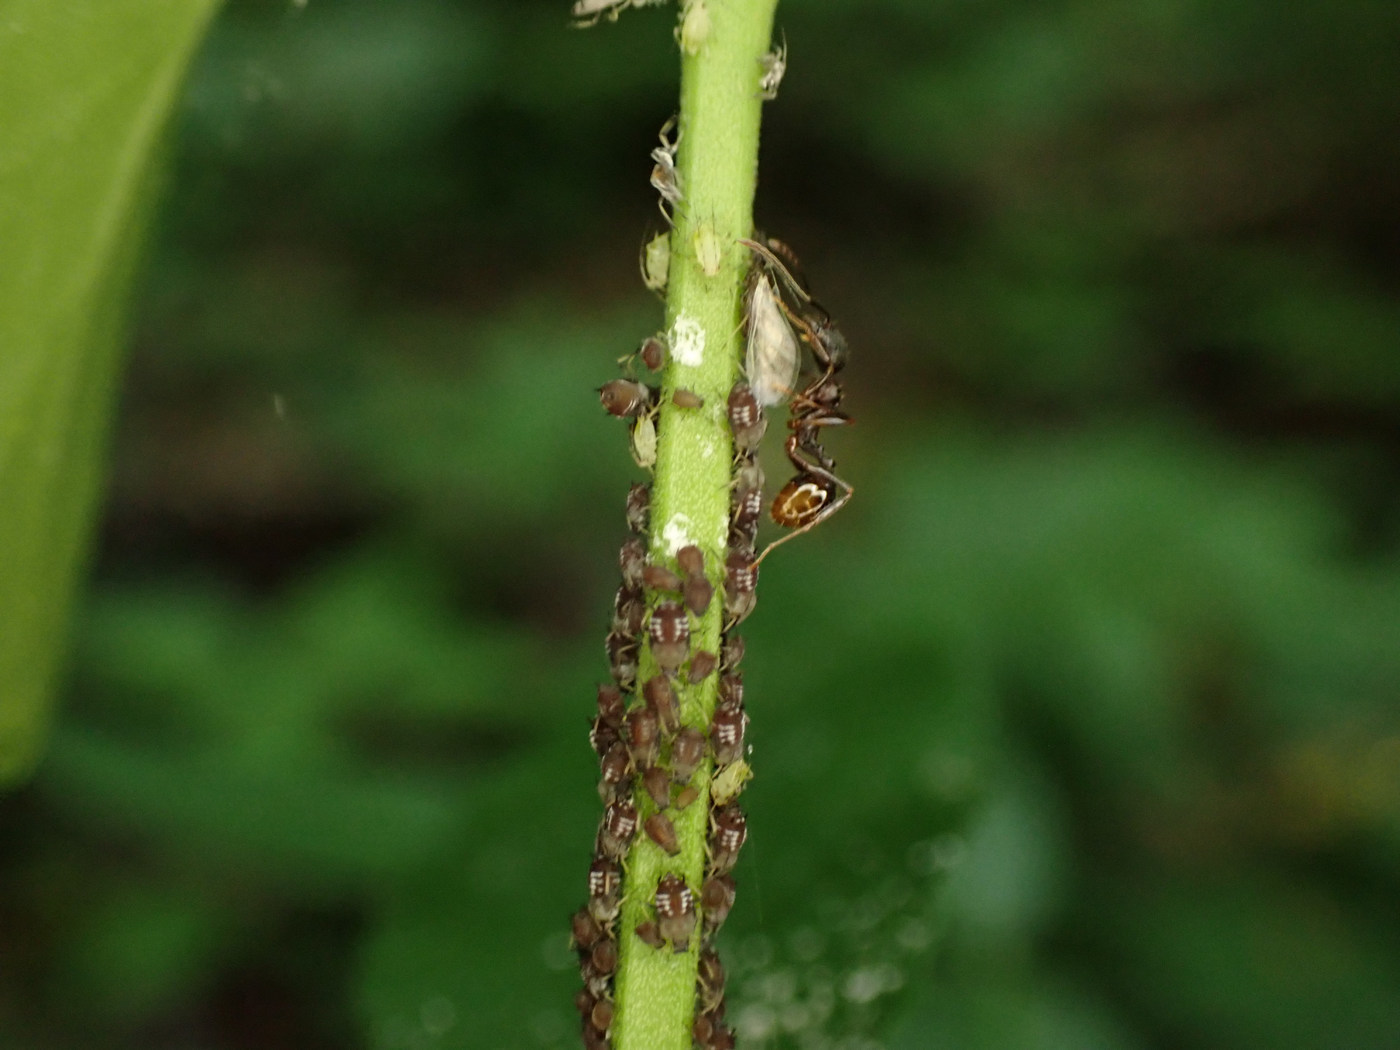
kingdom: Animalia
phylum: Arthropoda
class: Insecta
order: Hymenoptera
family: Formicidae
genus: Aphaenogaster
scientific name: Aphaenogaster picea
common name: Pitch-black collared ant
